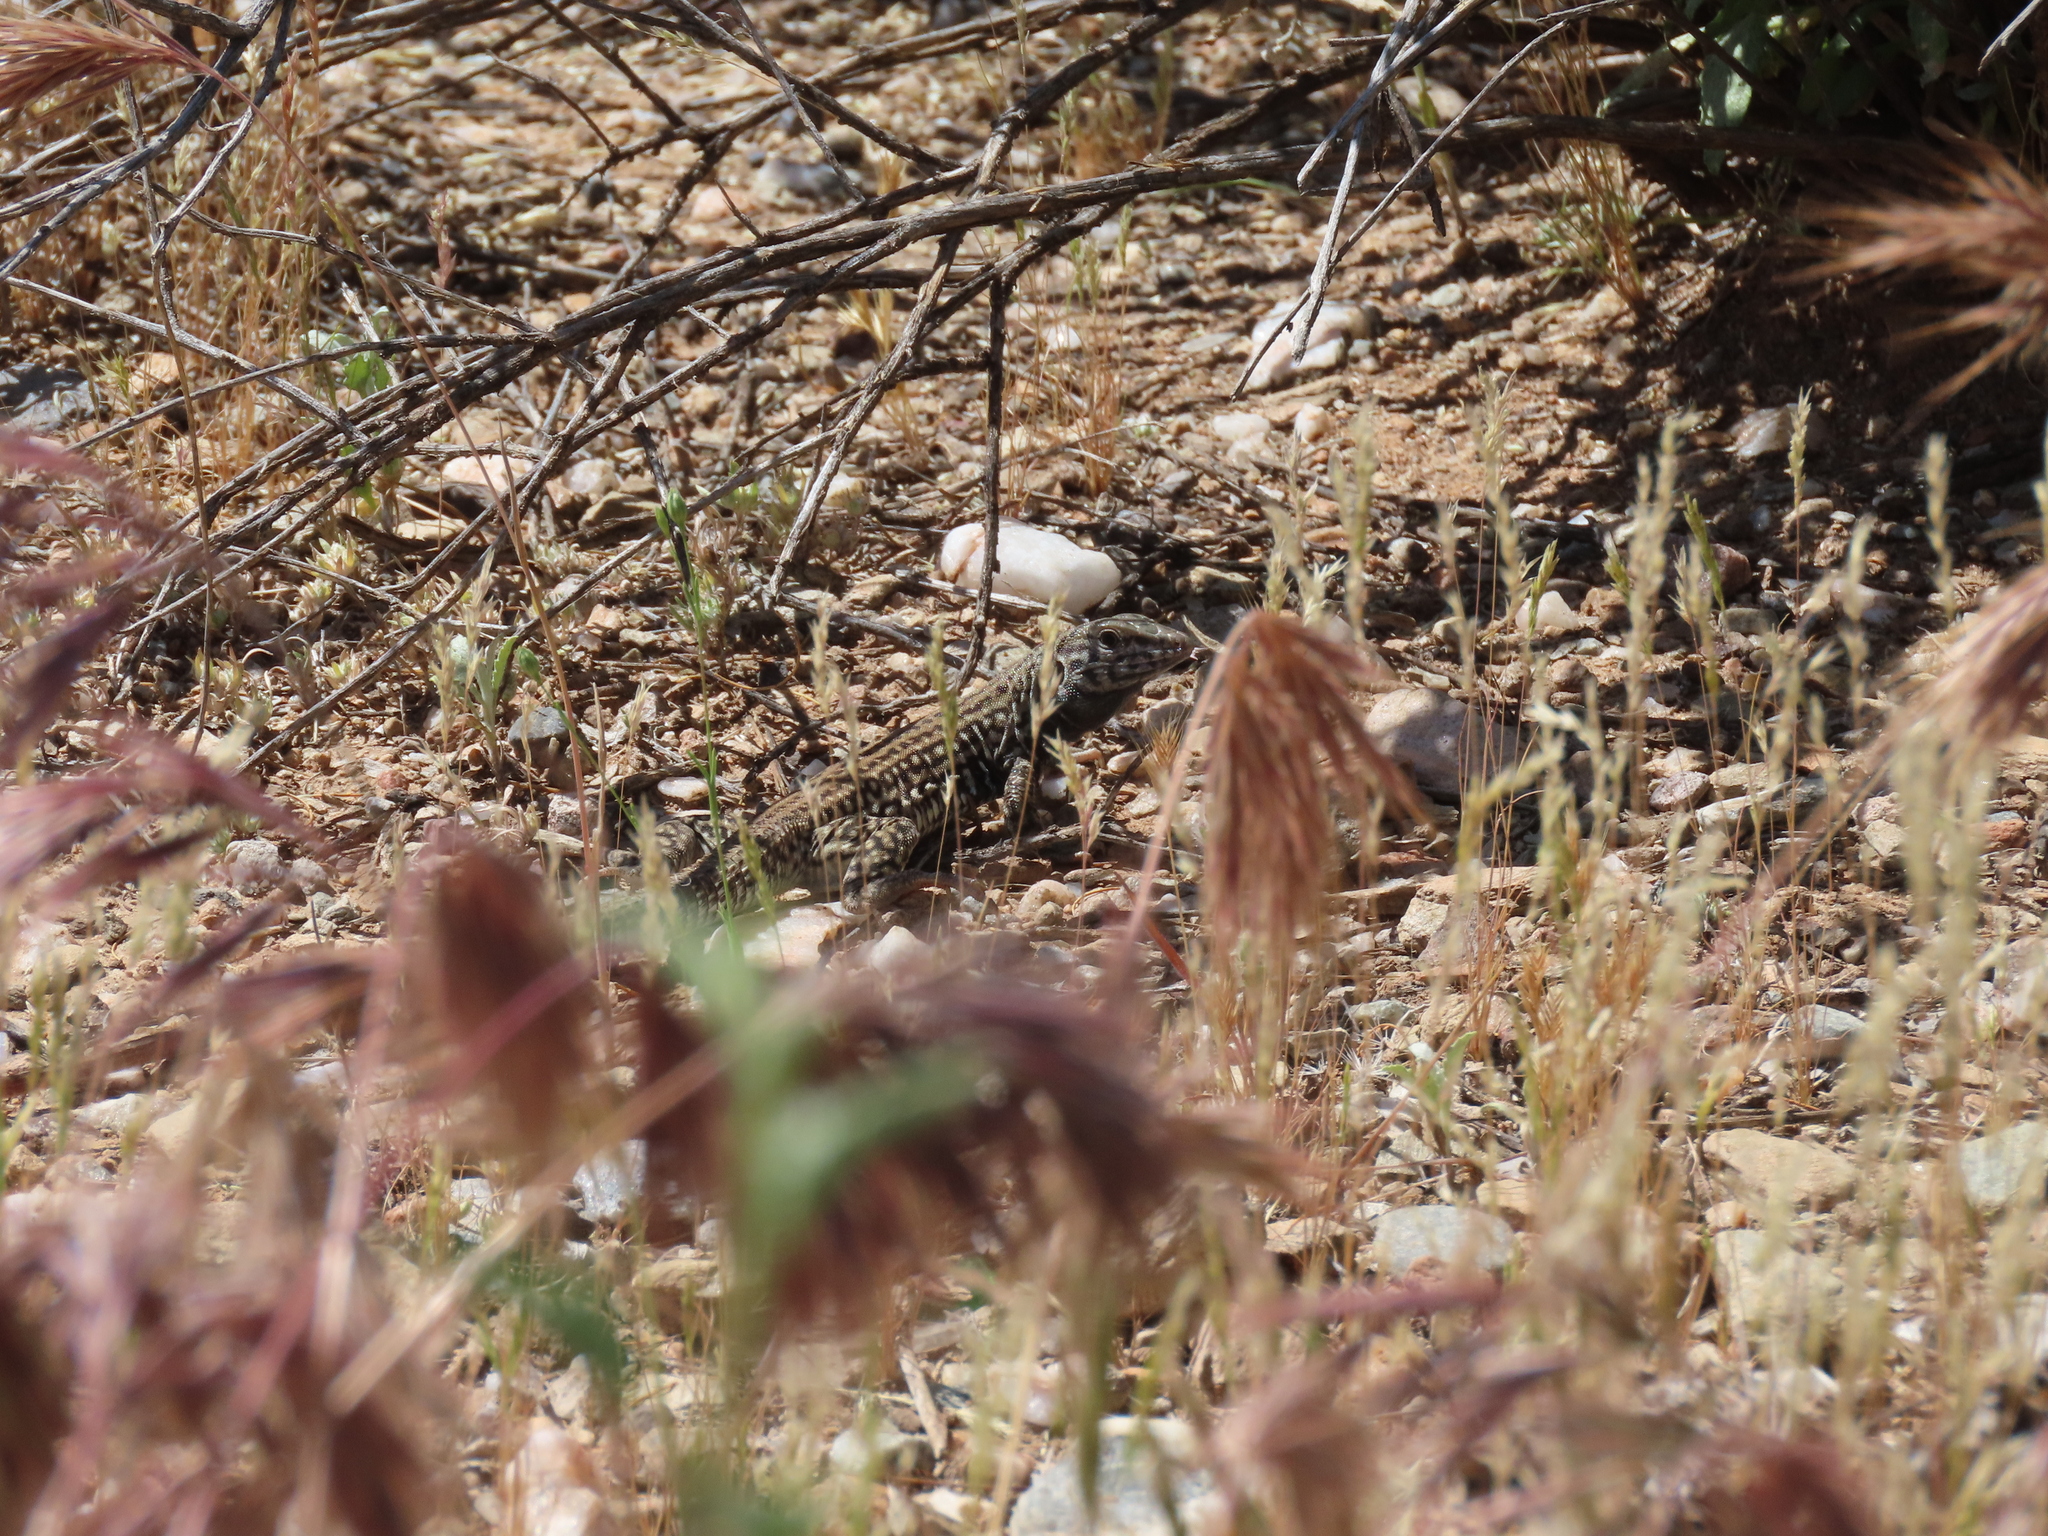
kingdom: Animalia
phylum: Chordata
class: Squamata
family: Teiidae
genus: Aspidoscelis
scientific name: Aspidoscelis tigris
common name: Tiger whiptail
